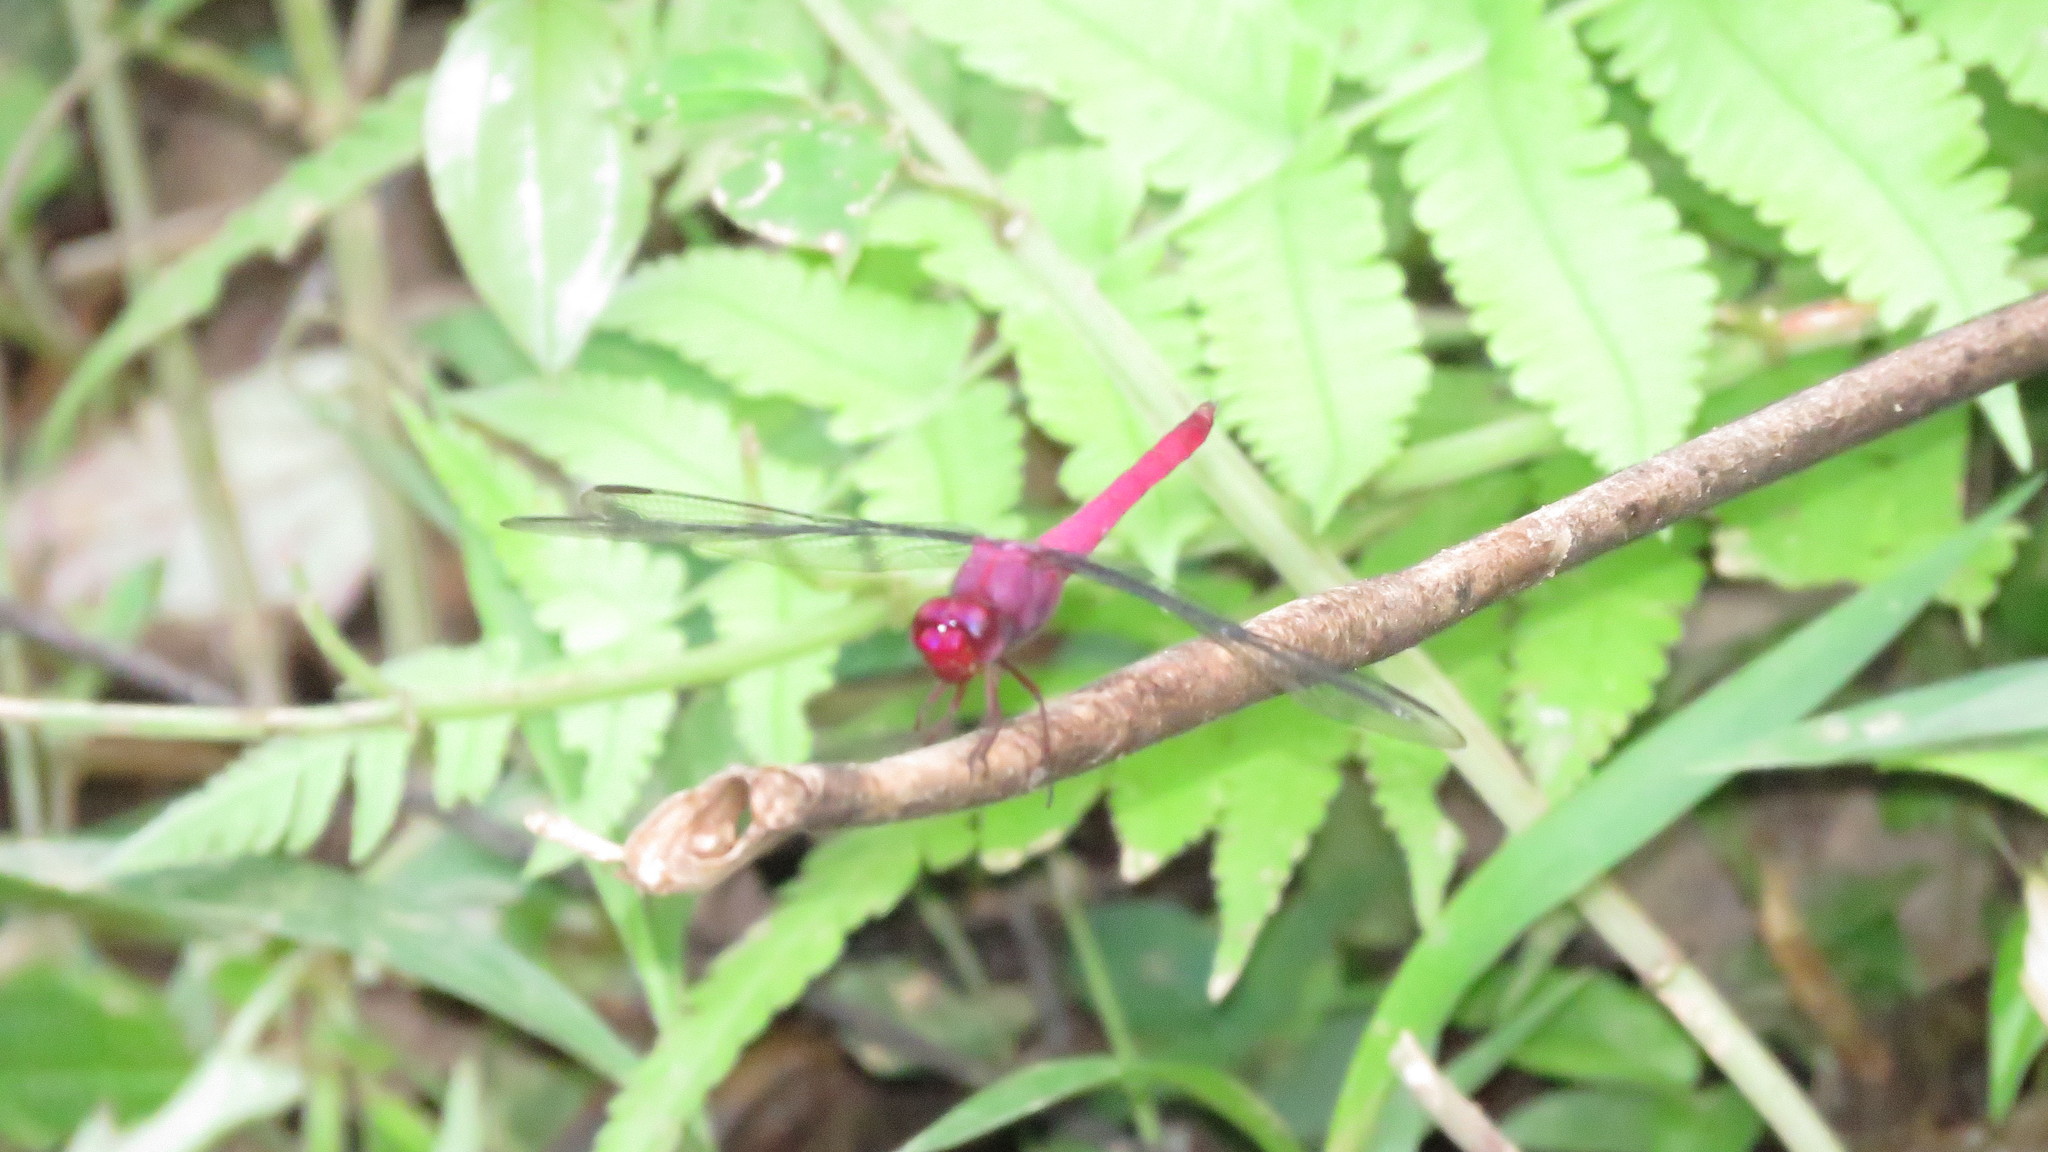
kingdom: Animalia
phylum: Arthropoda
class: Insecta
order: Odonata
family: Libellulidae
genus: Orthemis
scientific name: Orthemis discolor
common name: Carmine skimmer
